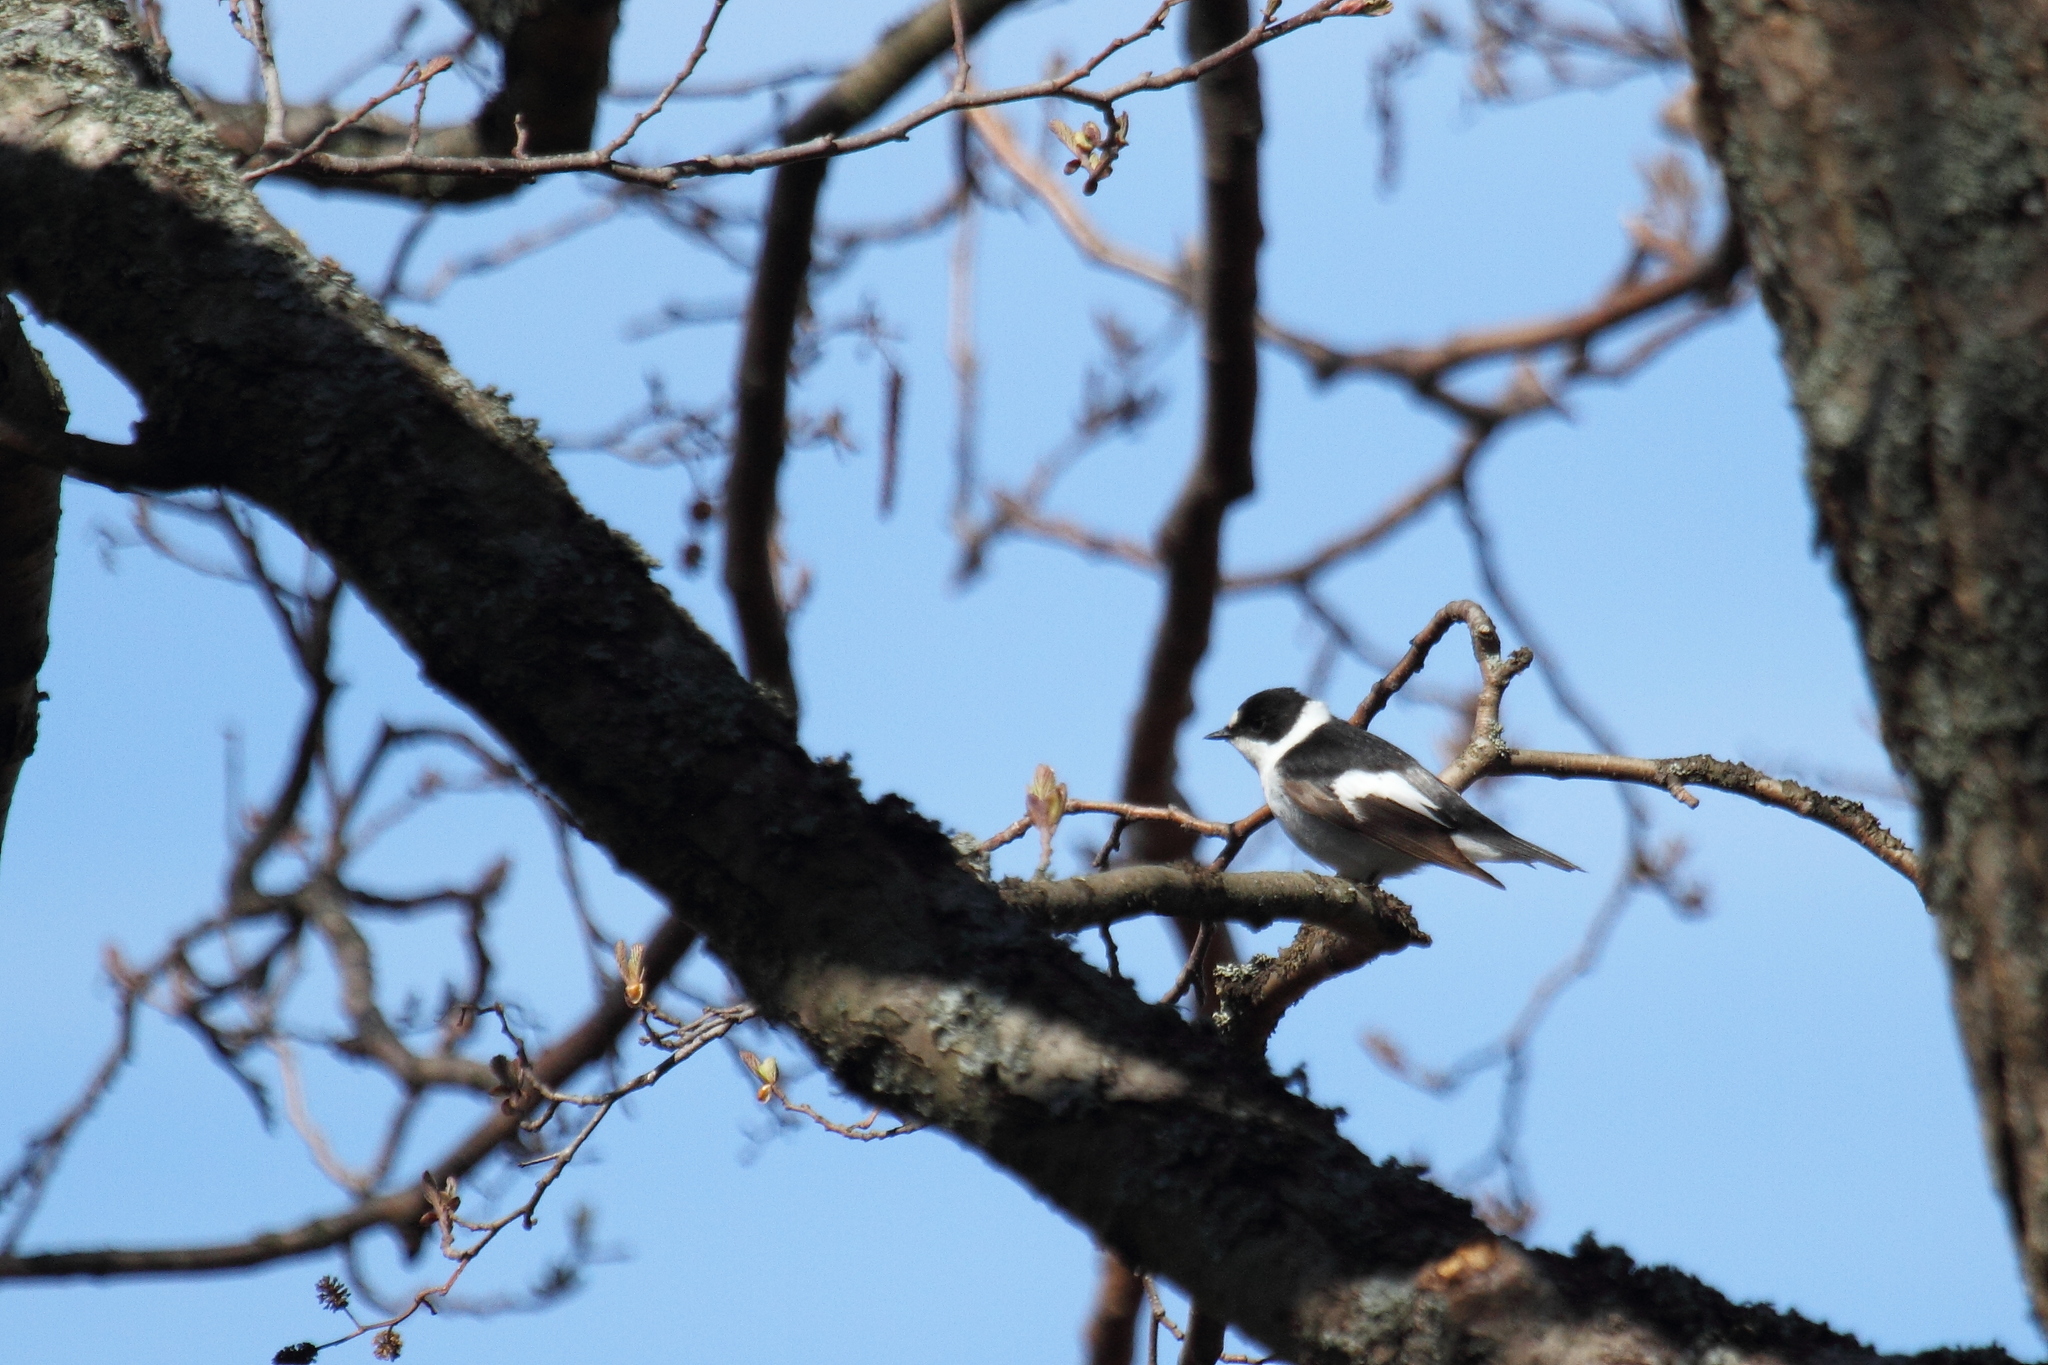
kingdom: Animalia
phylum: Chordata
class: Aves
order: Passeriformes
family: Muscicapidae
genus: Ficedula
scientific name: Ficedula albicollis
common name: Collared flycatcher
